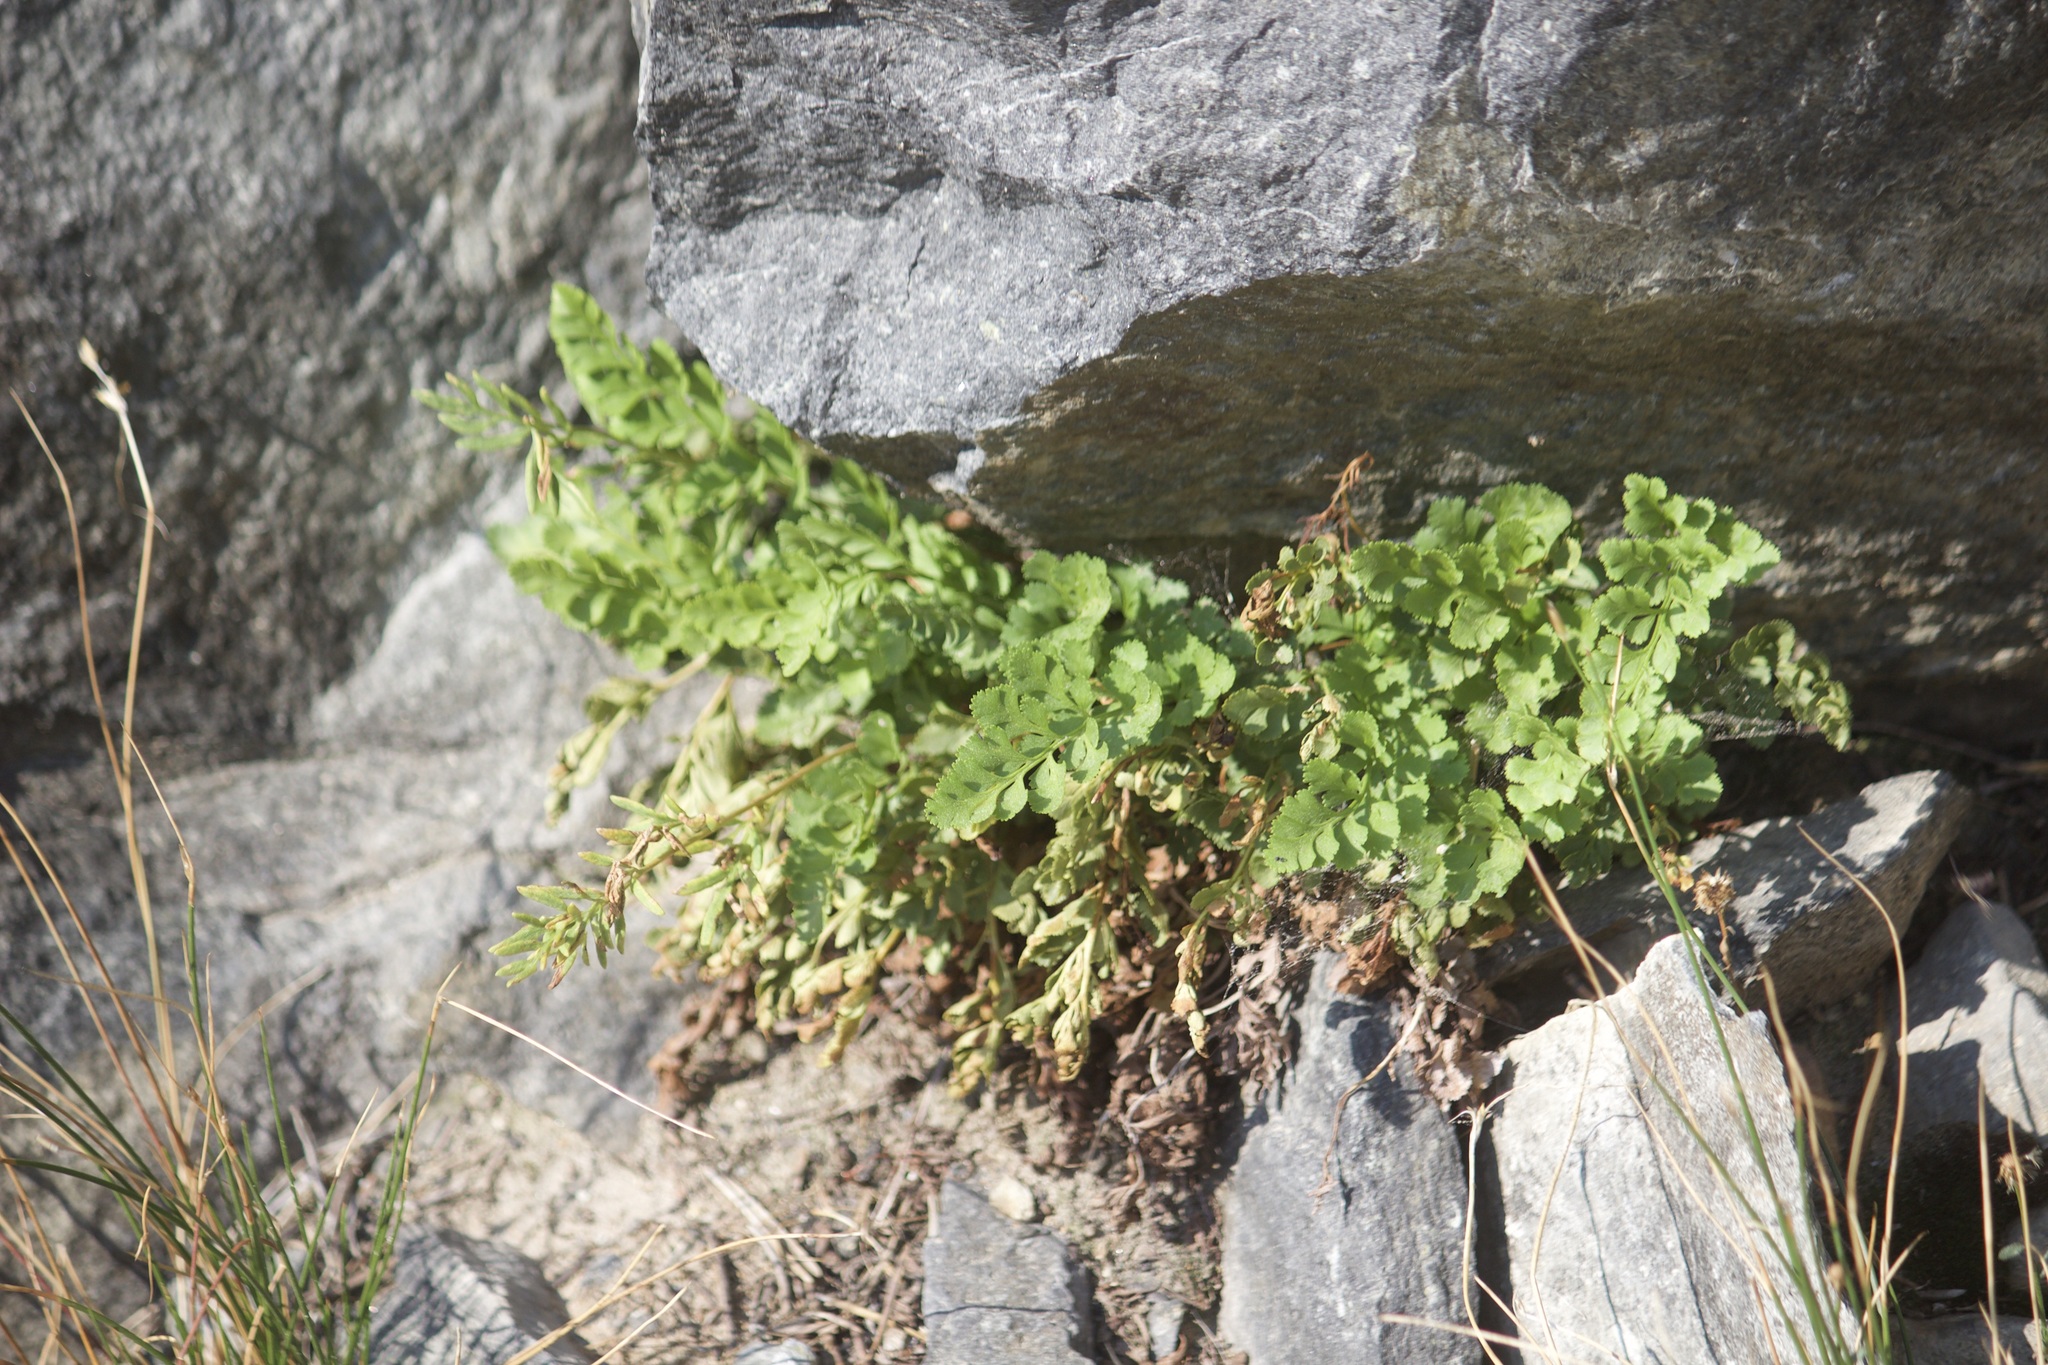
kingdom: Plantae
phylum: Tracheophyta
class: Polypodiopsida
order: Polypodiales
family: Pteridaceae
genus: Cryptogramma
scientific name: Cryptogramma acrostichoides
